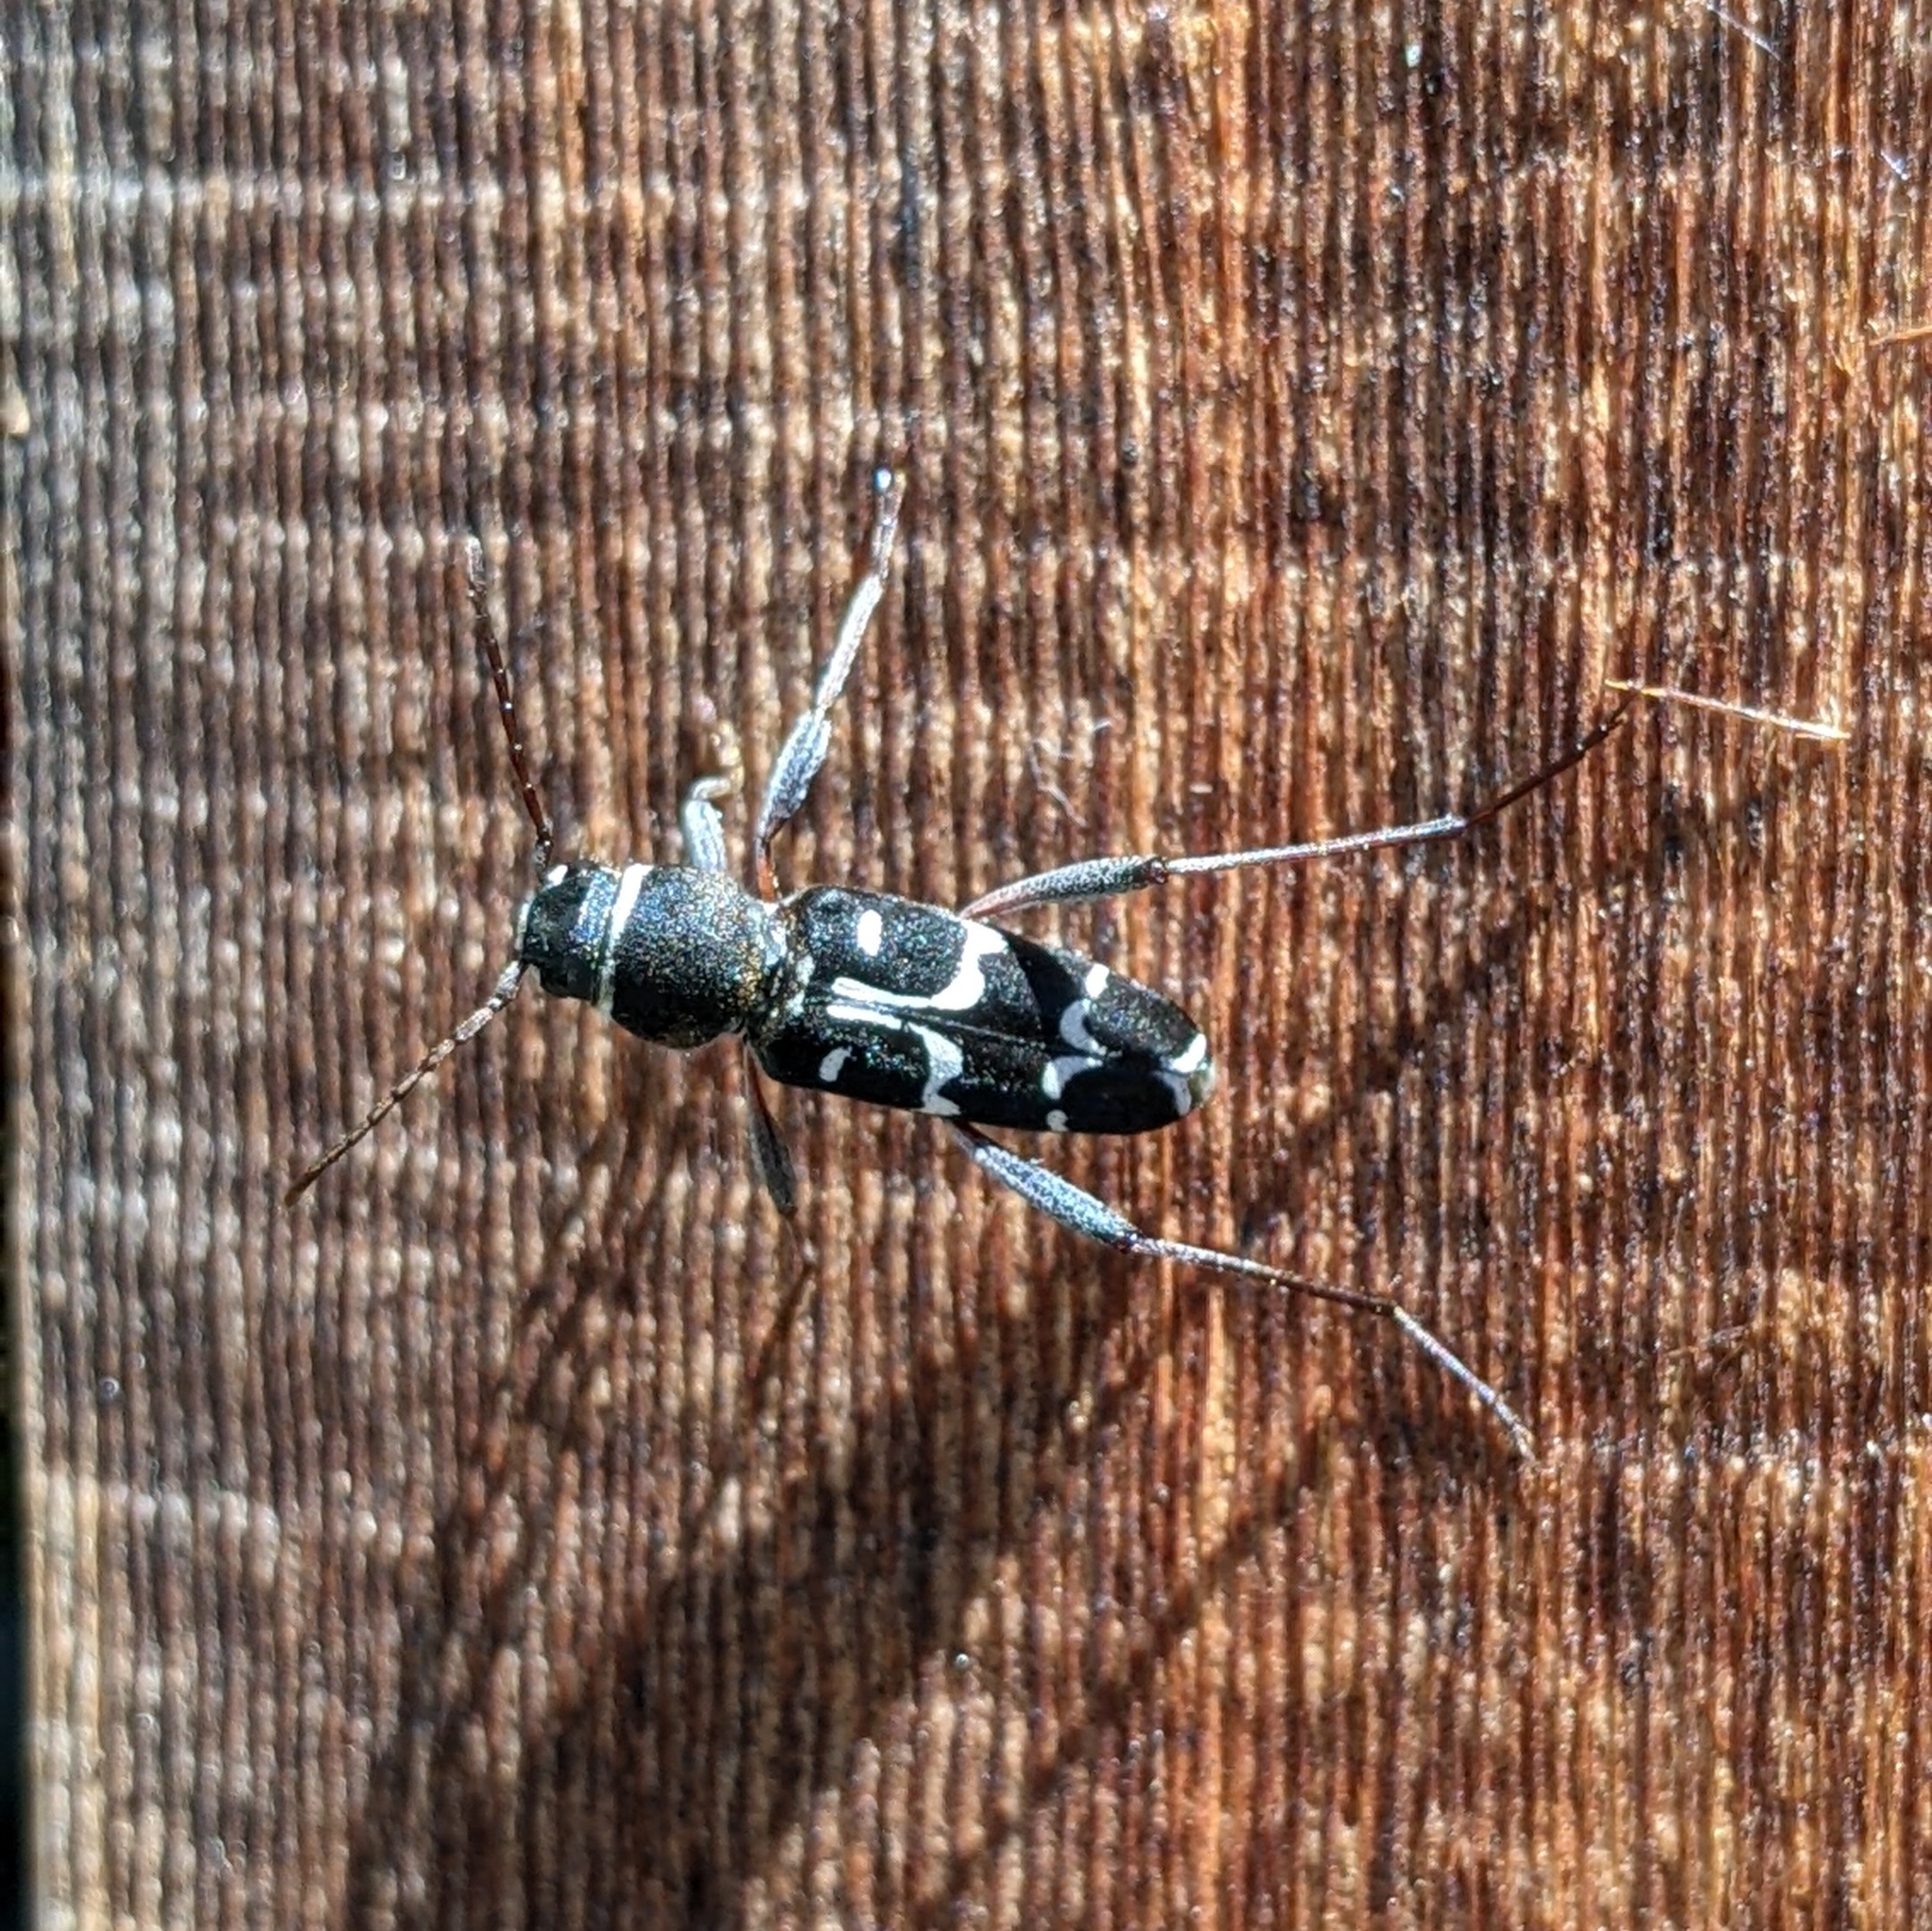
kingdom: Animalia
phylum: Arthropoda
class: Insecta
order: Coleoptera
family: Cerambycidae
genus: Xylotrechus
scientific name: Xylotrechus undulatus
